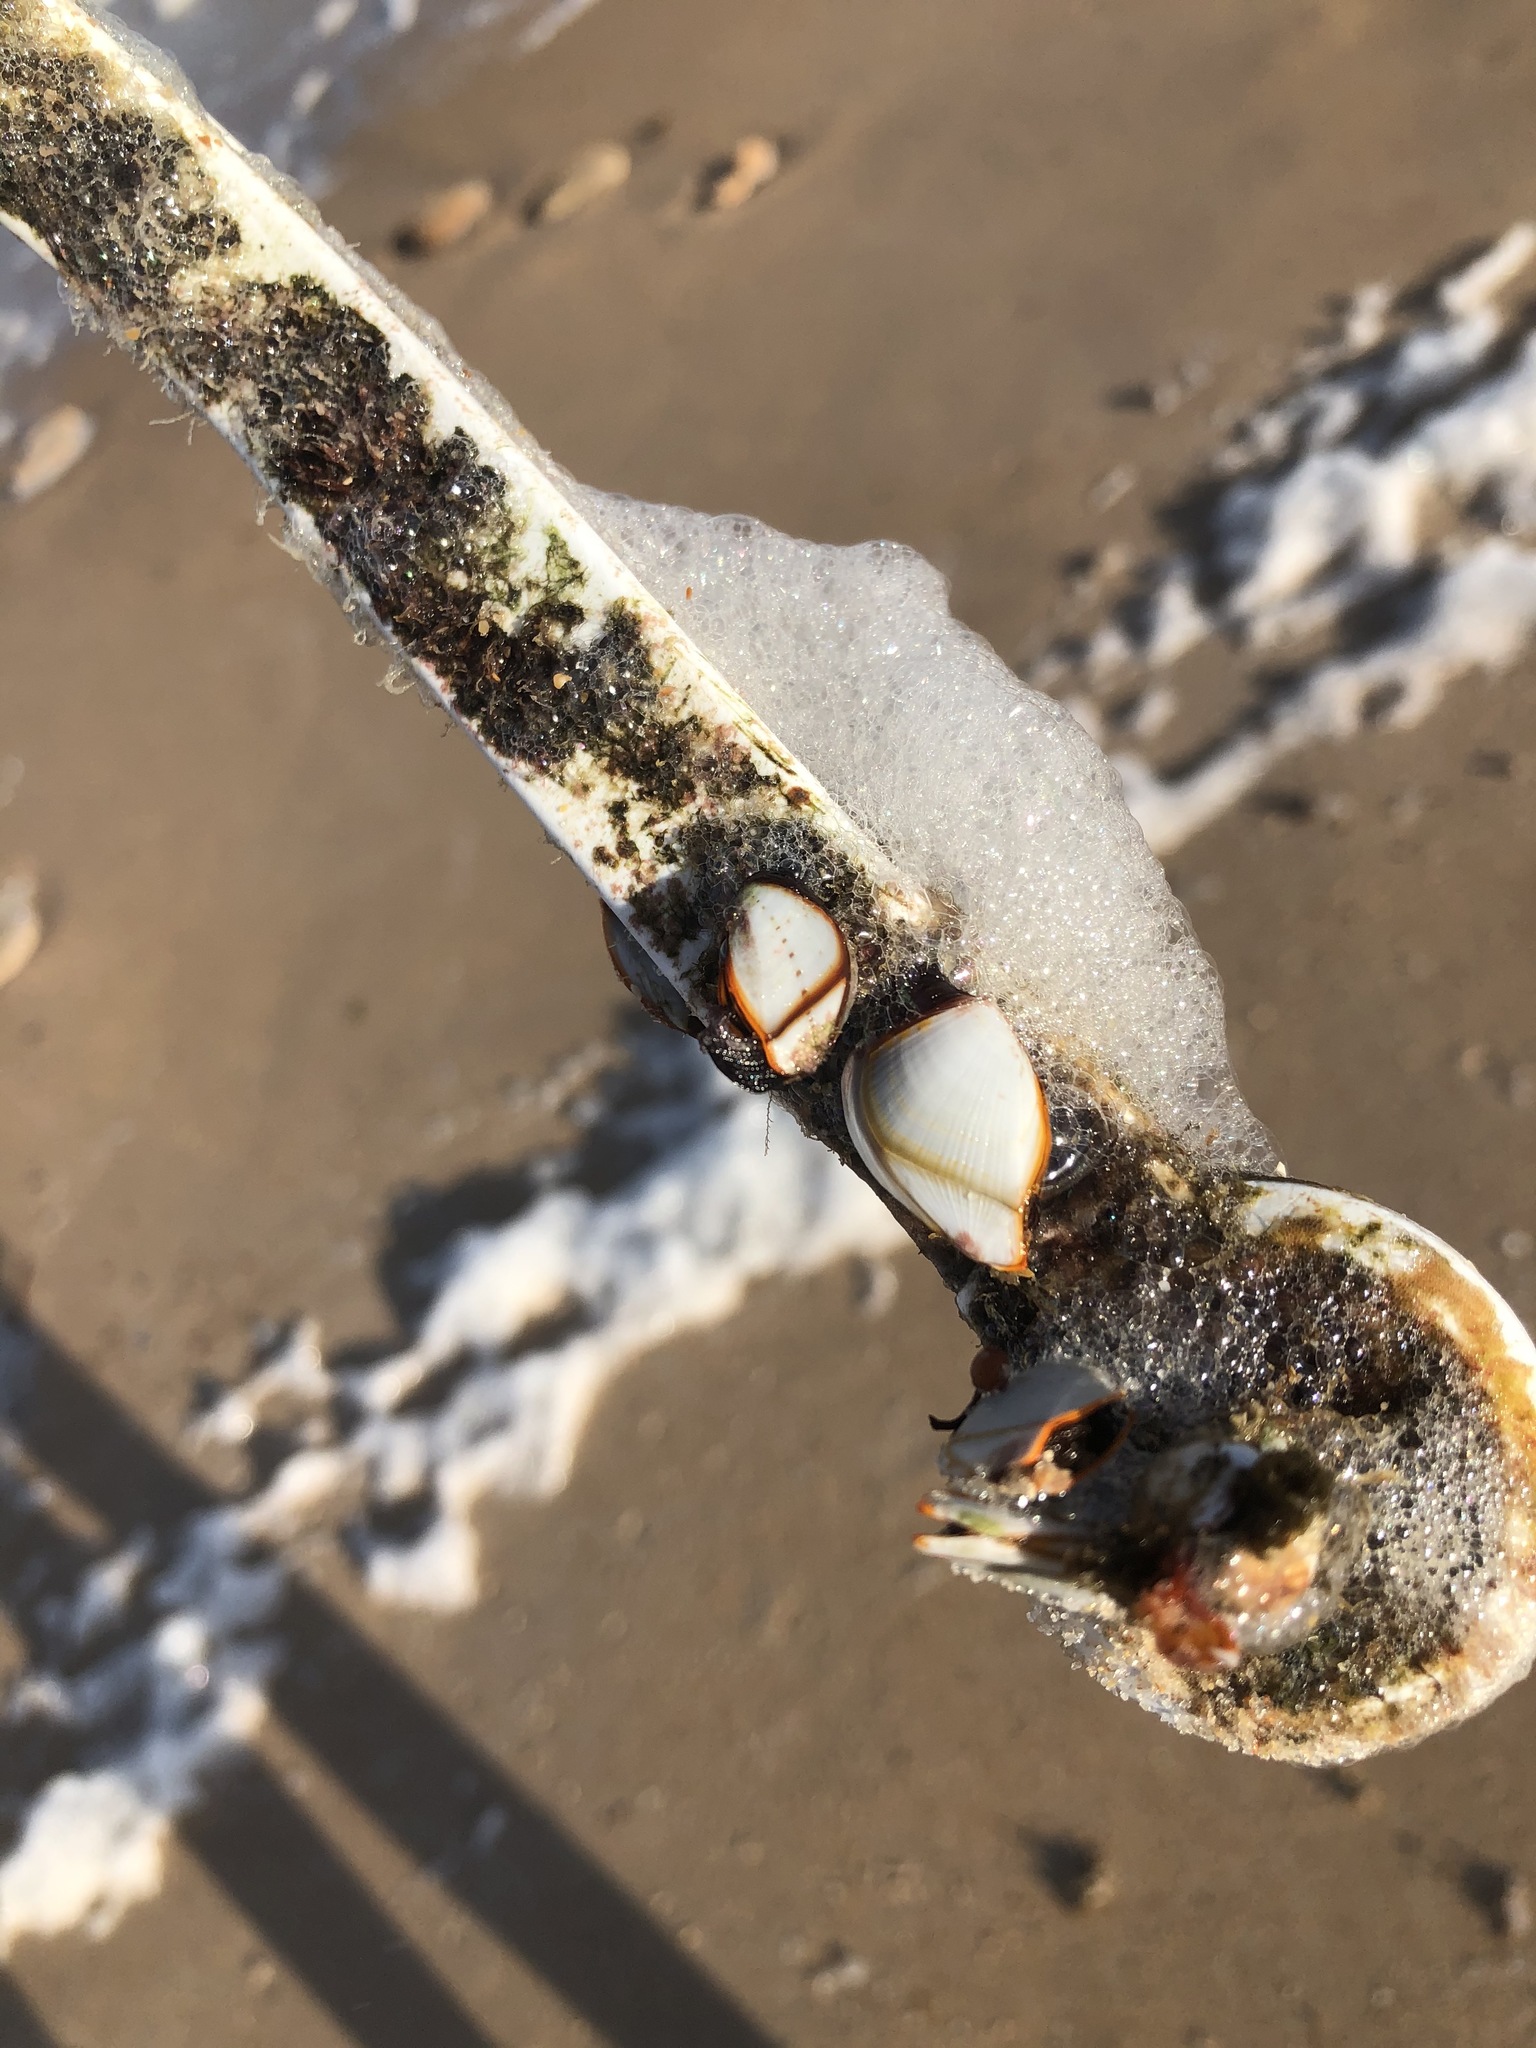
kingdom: Animalia
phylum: Arthropoda
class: Maxillopoda
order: Pedunculata
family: Lepadidae
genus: Lepas
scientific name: Lepas anserifera
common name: Goose barnacle
